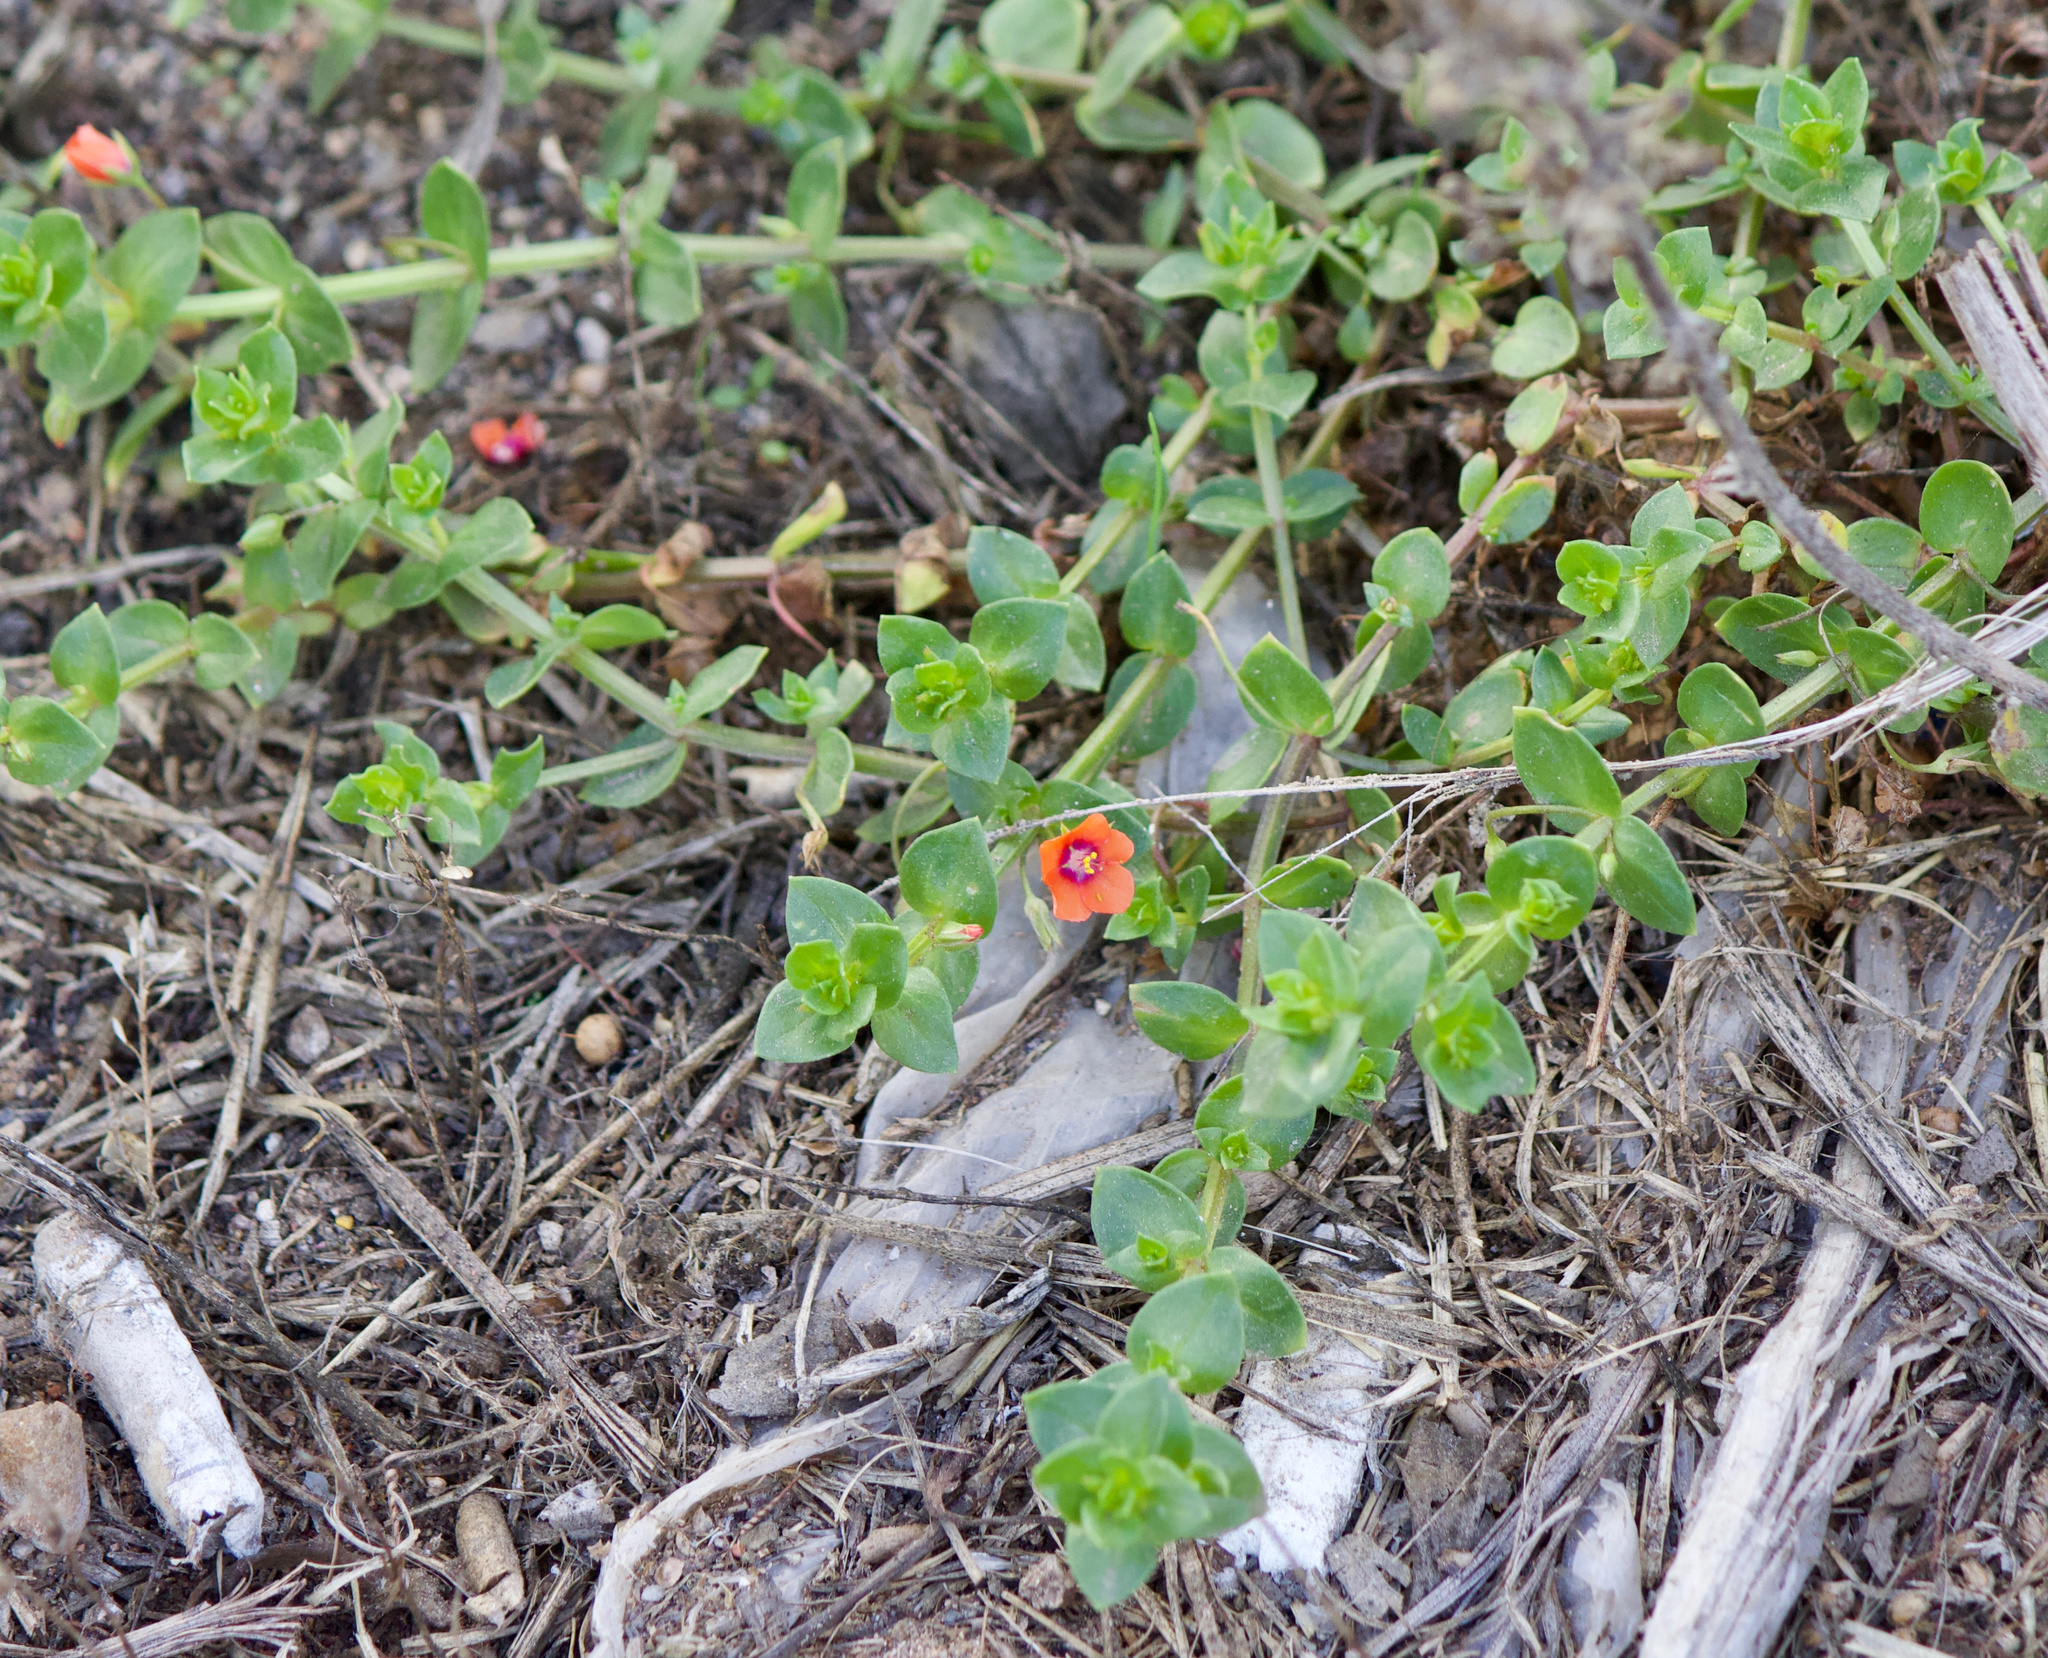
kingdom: Plantae
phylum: Tracheophyta
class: Magnoliopsida
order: Ericales
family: Primulaceae
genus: Lysimachia
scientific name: Lysimachia arvensis
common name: Scarlet pimpernel
